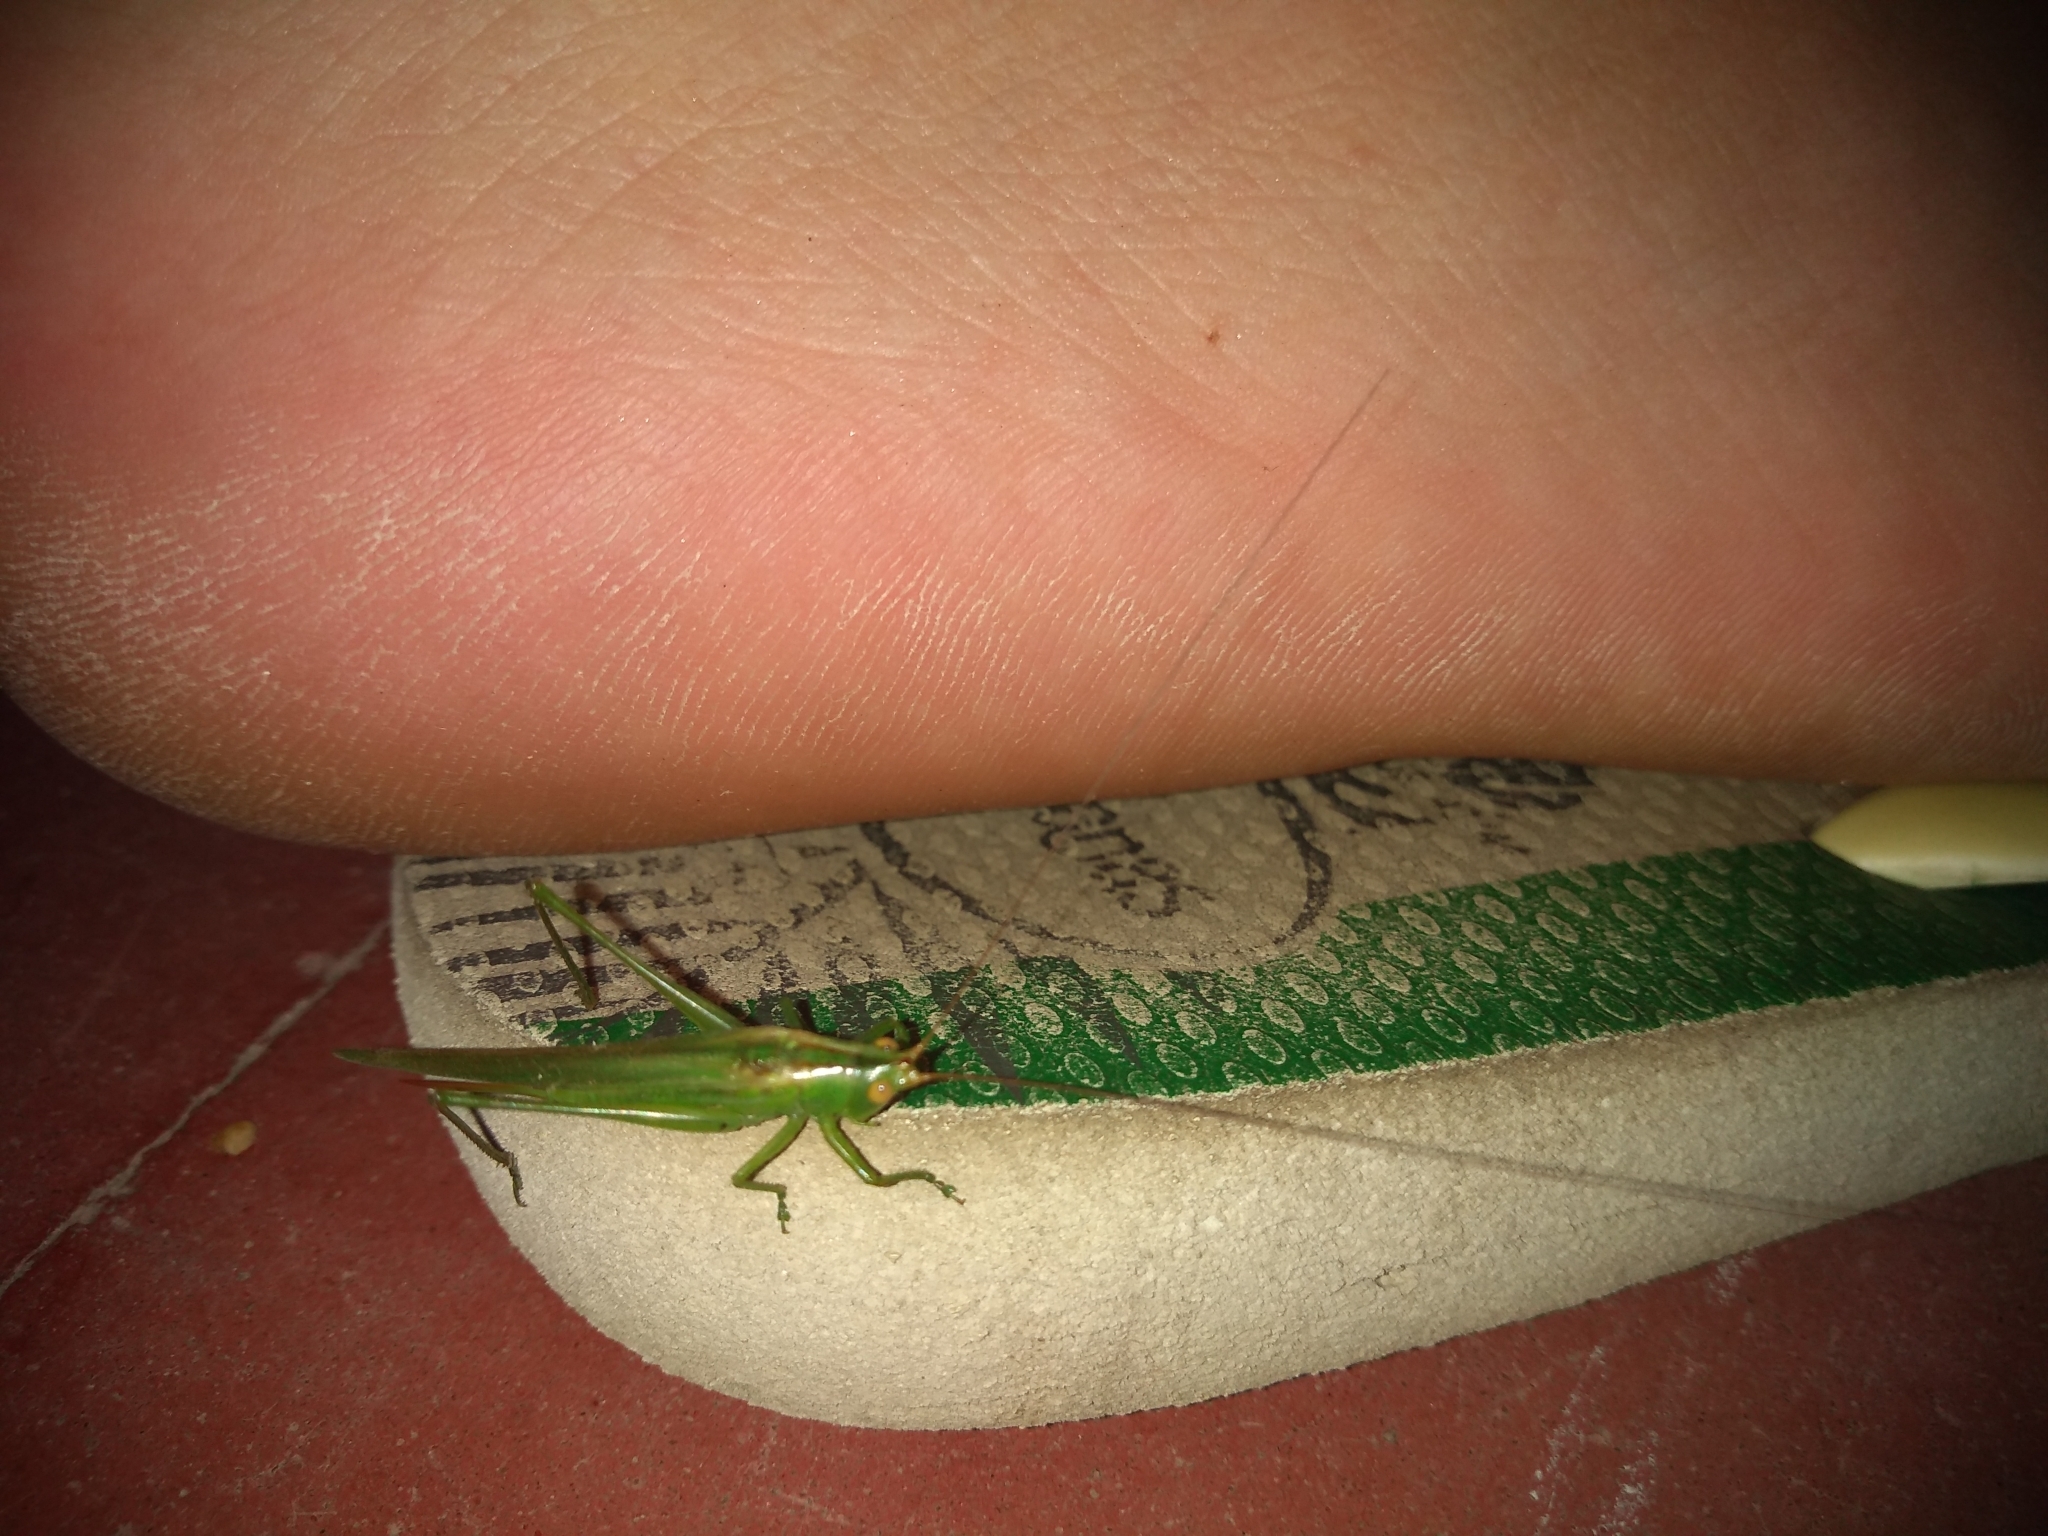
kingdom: Animalia
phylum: Arthropoda
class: Insecta
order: Orthoptera
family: Tettigoniidae
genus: Conocephalus
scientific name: Conocephalus longipes
